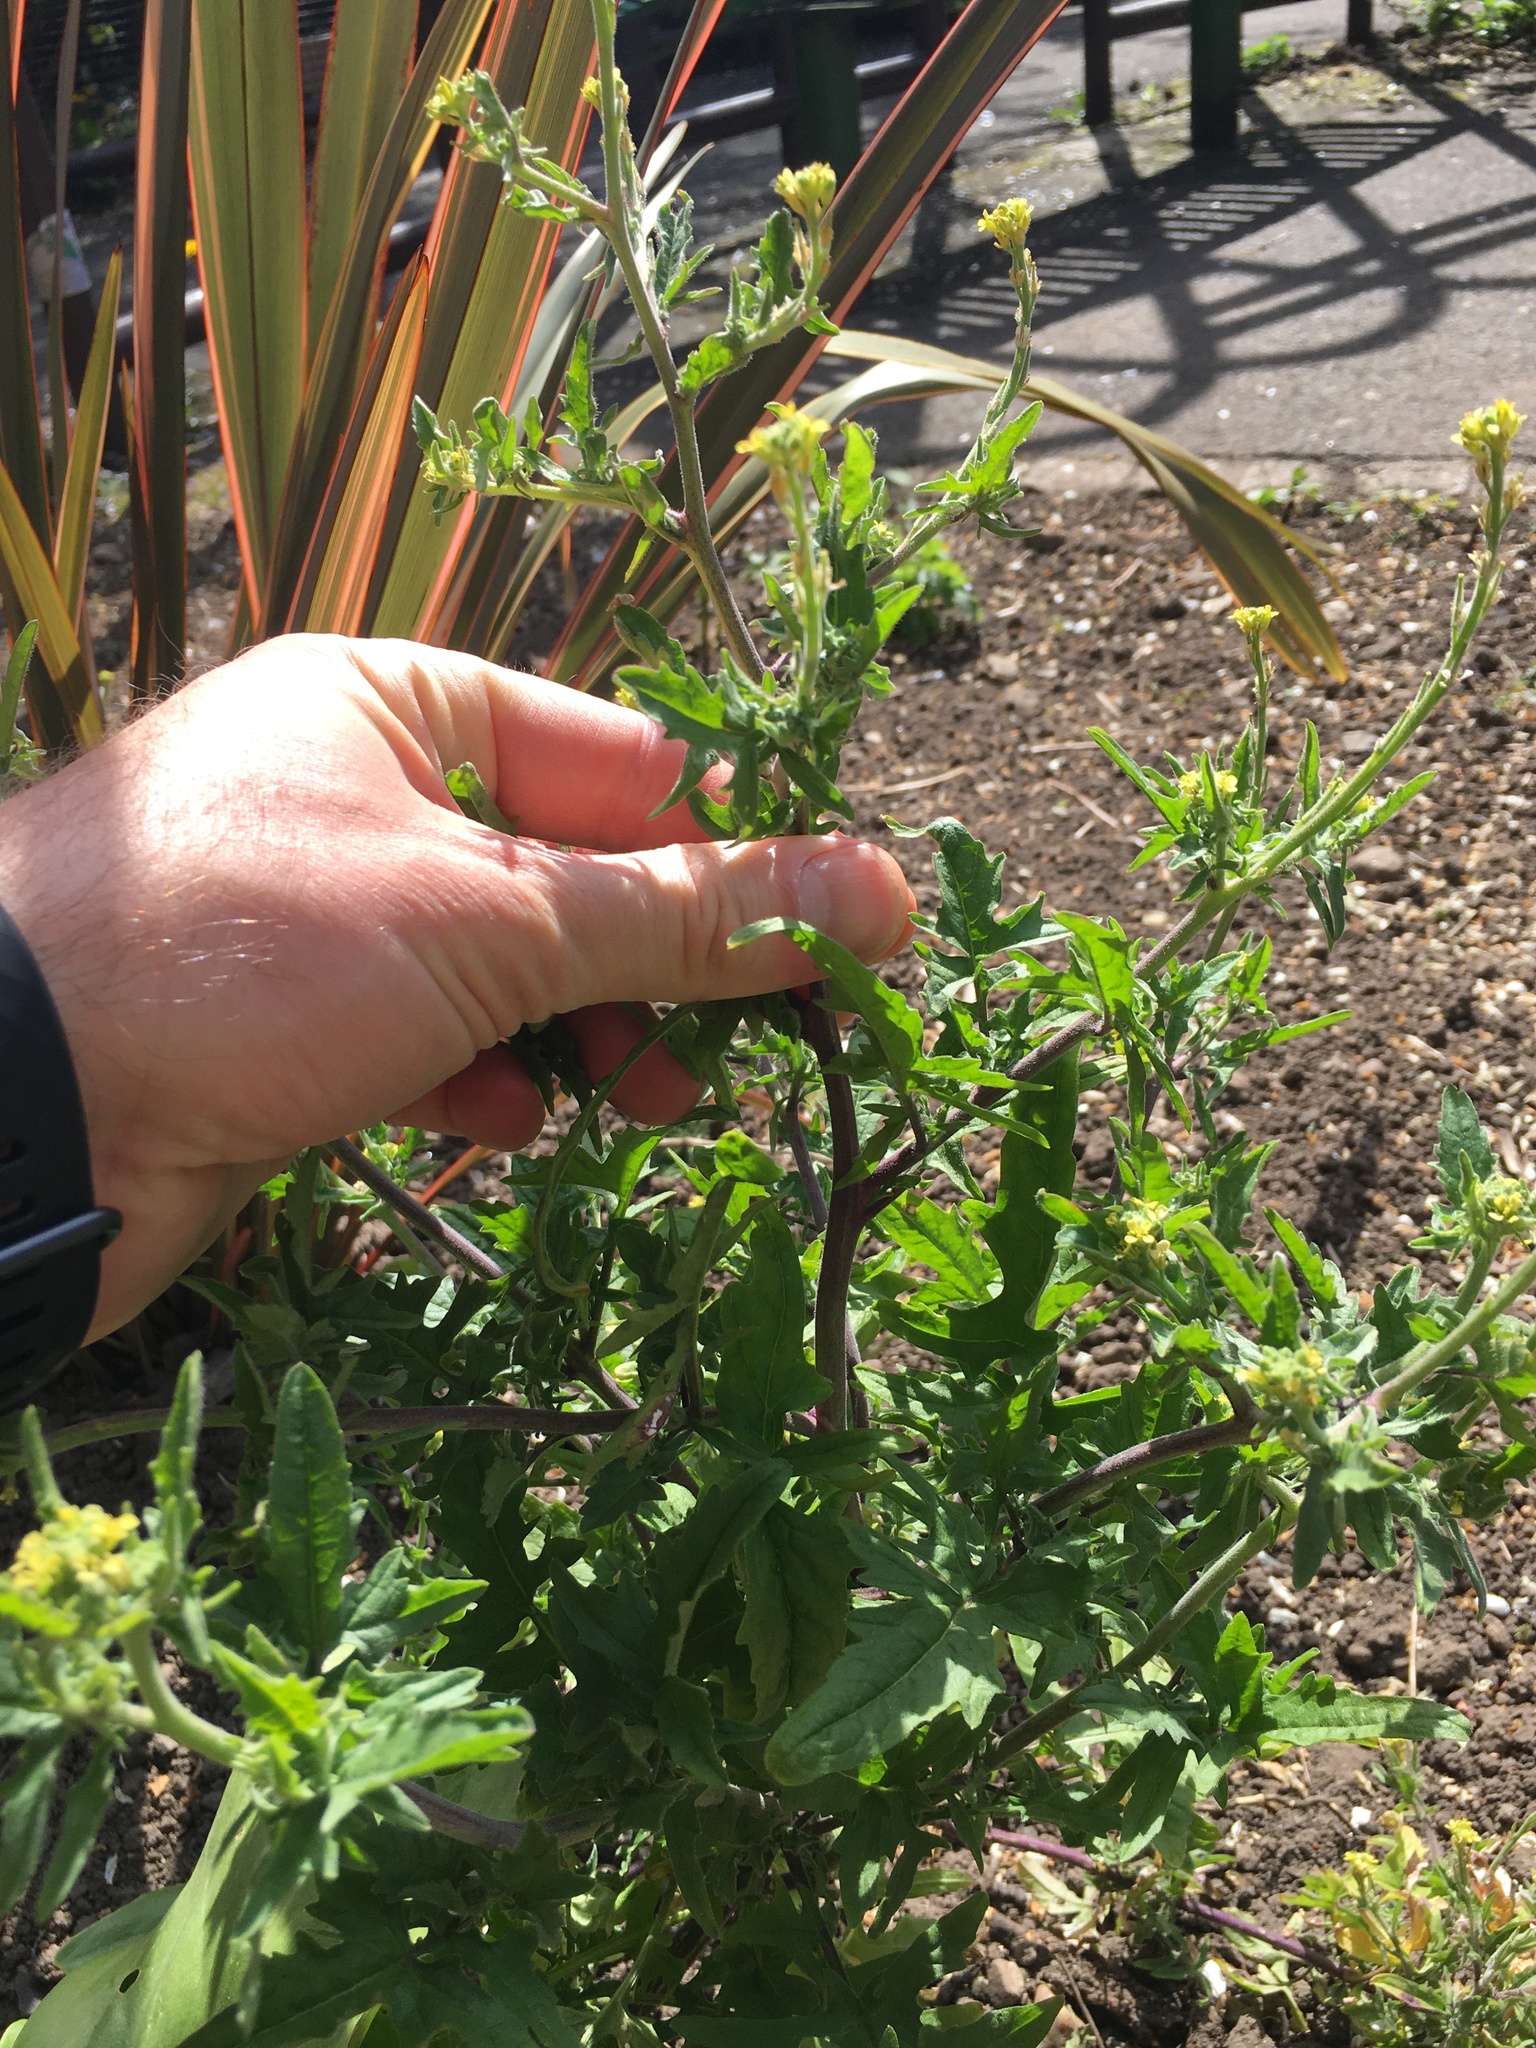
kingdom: Plantae
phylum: Tracheophyta
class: Magnoliopsida
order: Brassicales
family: Brassicaceae
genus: Sisymbrium
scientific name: Sisymbrium officinale
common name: Hedge mustard
